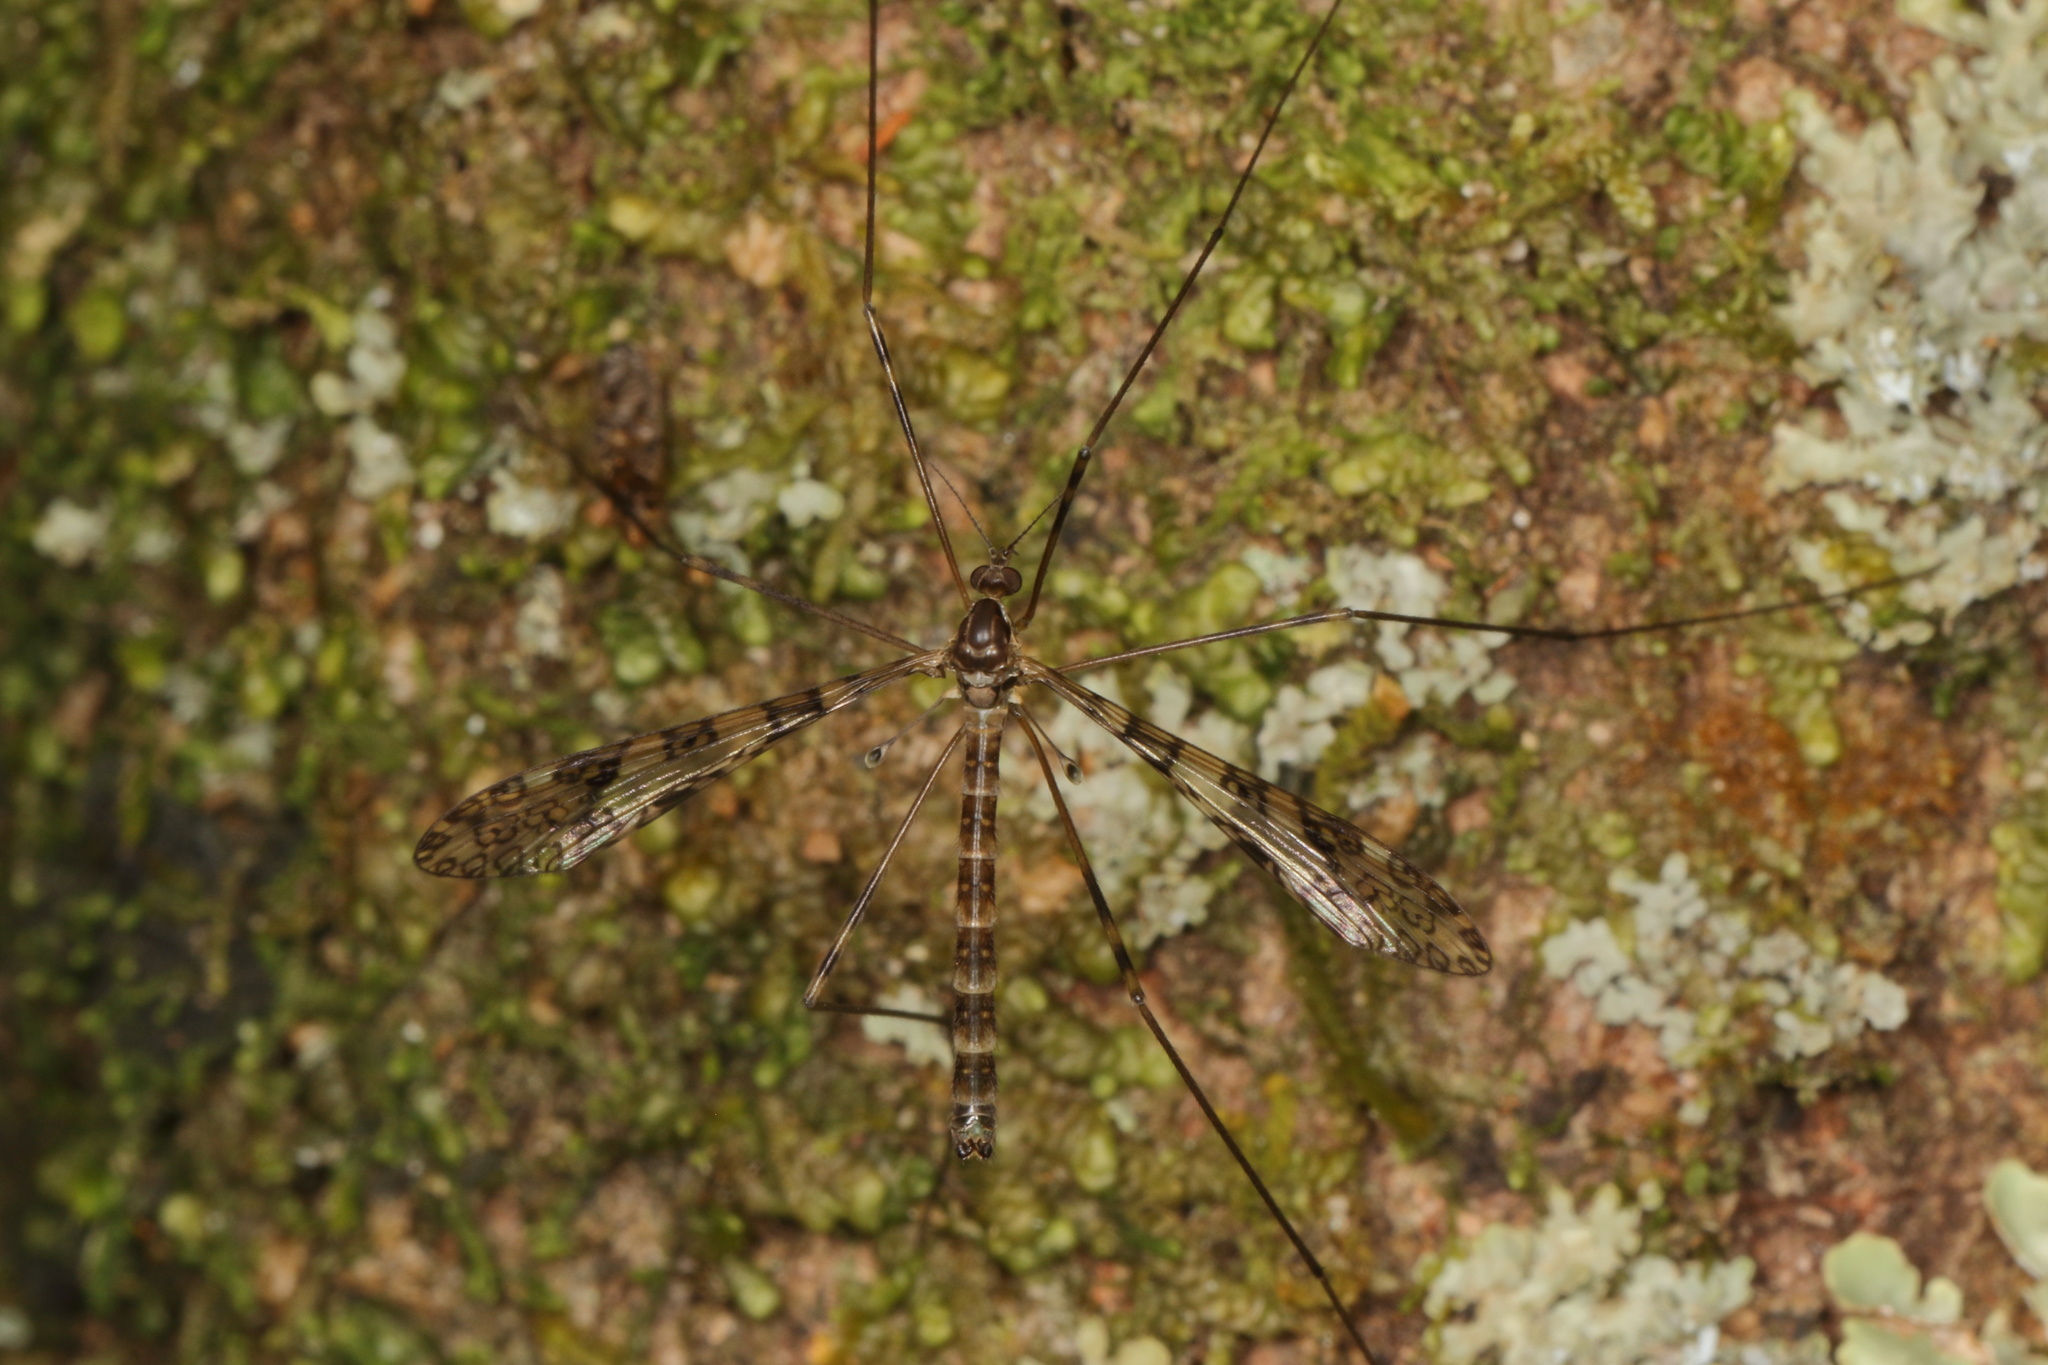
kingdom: Animalia
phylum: Arthropoda
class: Insecta
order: Diptera
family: Limoniidae
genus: Austrolimnophila
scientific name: Austrolimnophila argus
